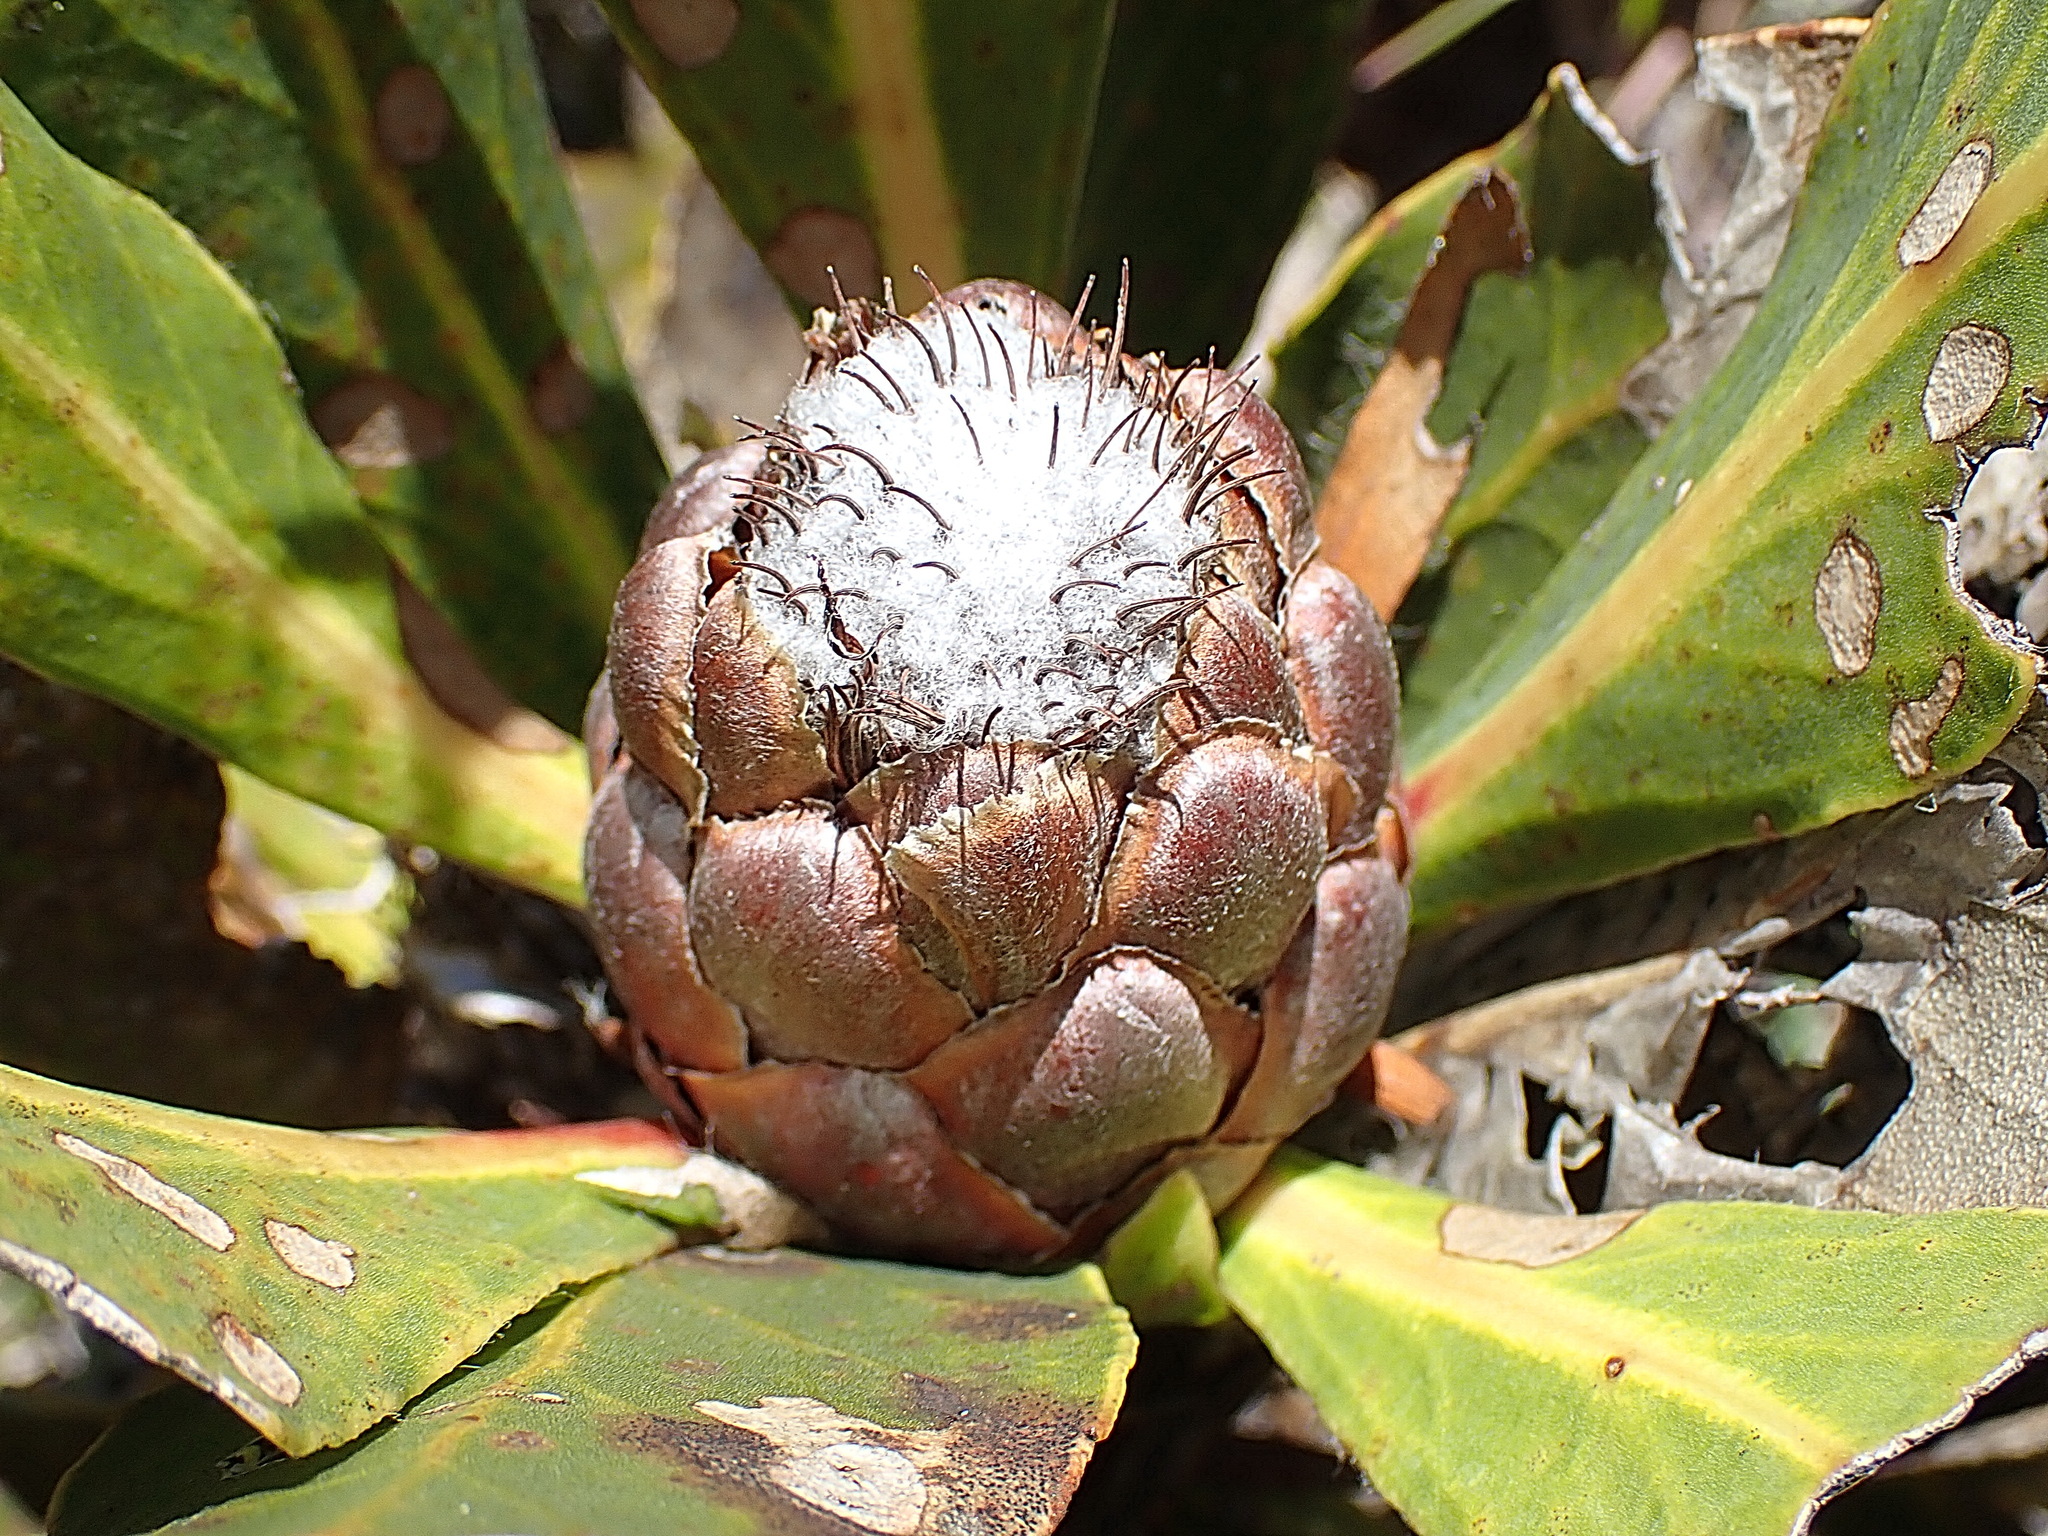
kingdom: Plantae
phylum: Tracheophyta
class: Magnoliopsida
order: Proteales
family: Proteaceae
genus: Protea
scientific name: Protea foliosa
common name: Leafy sugarbush
